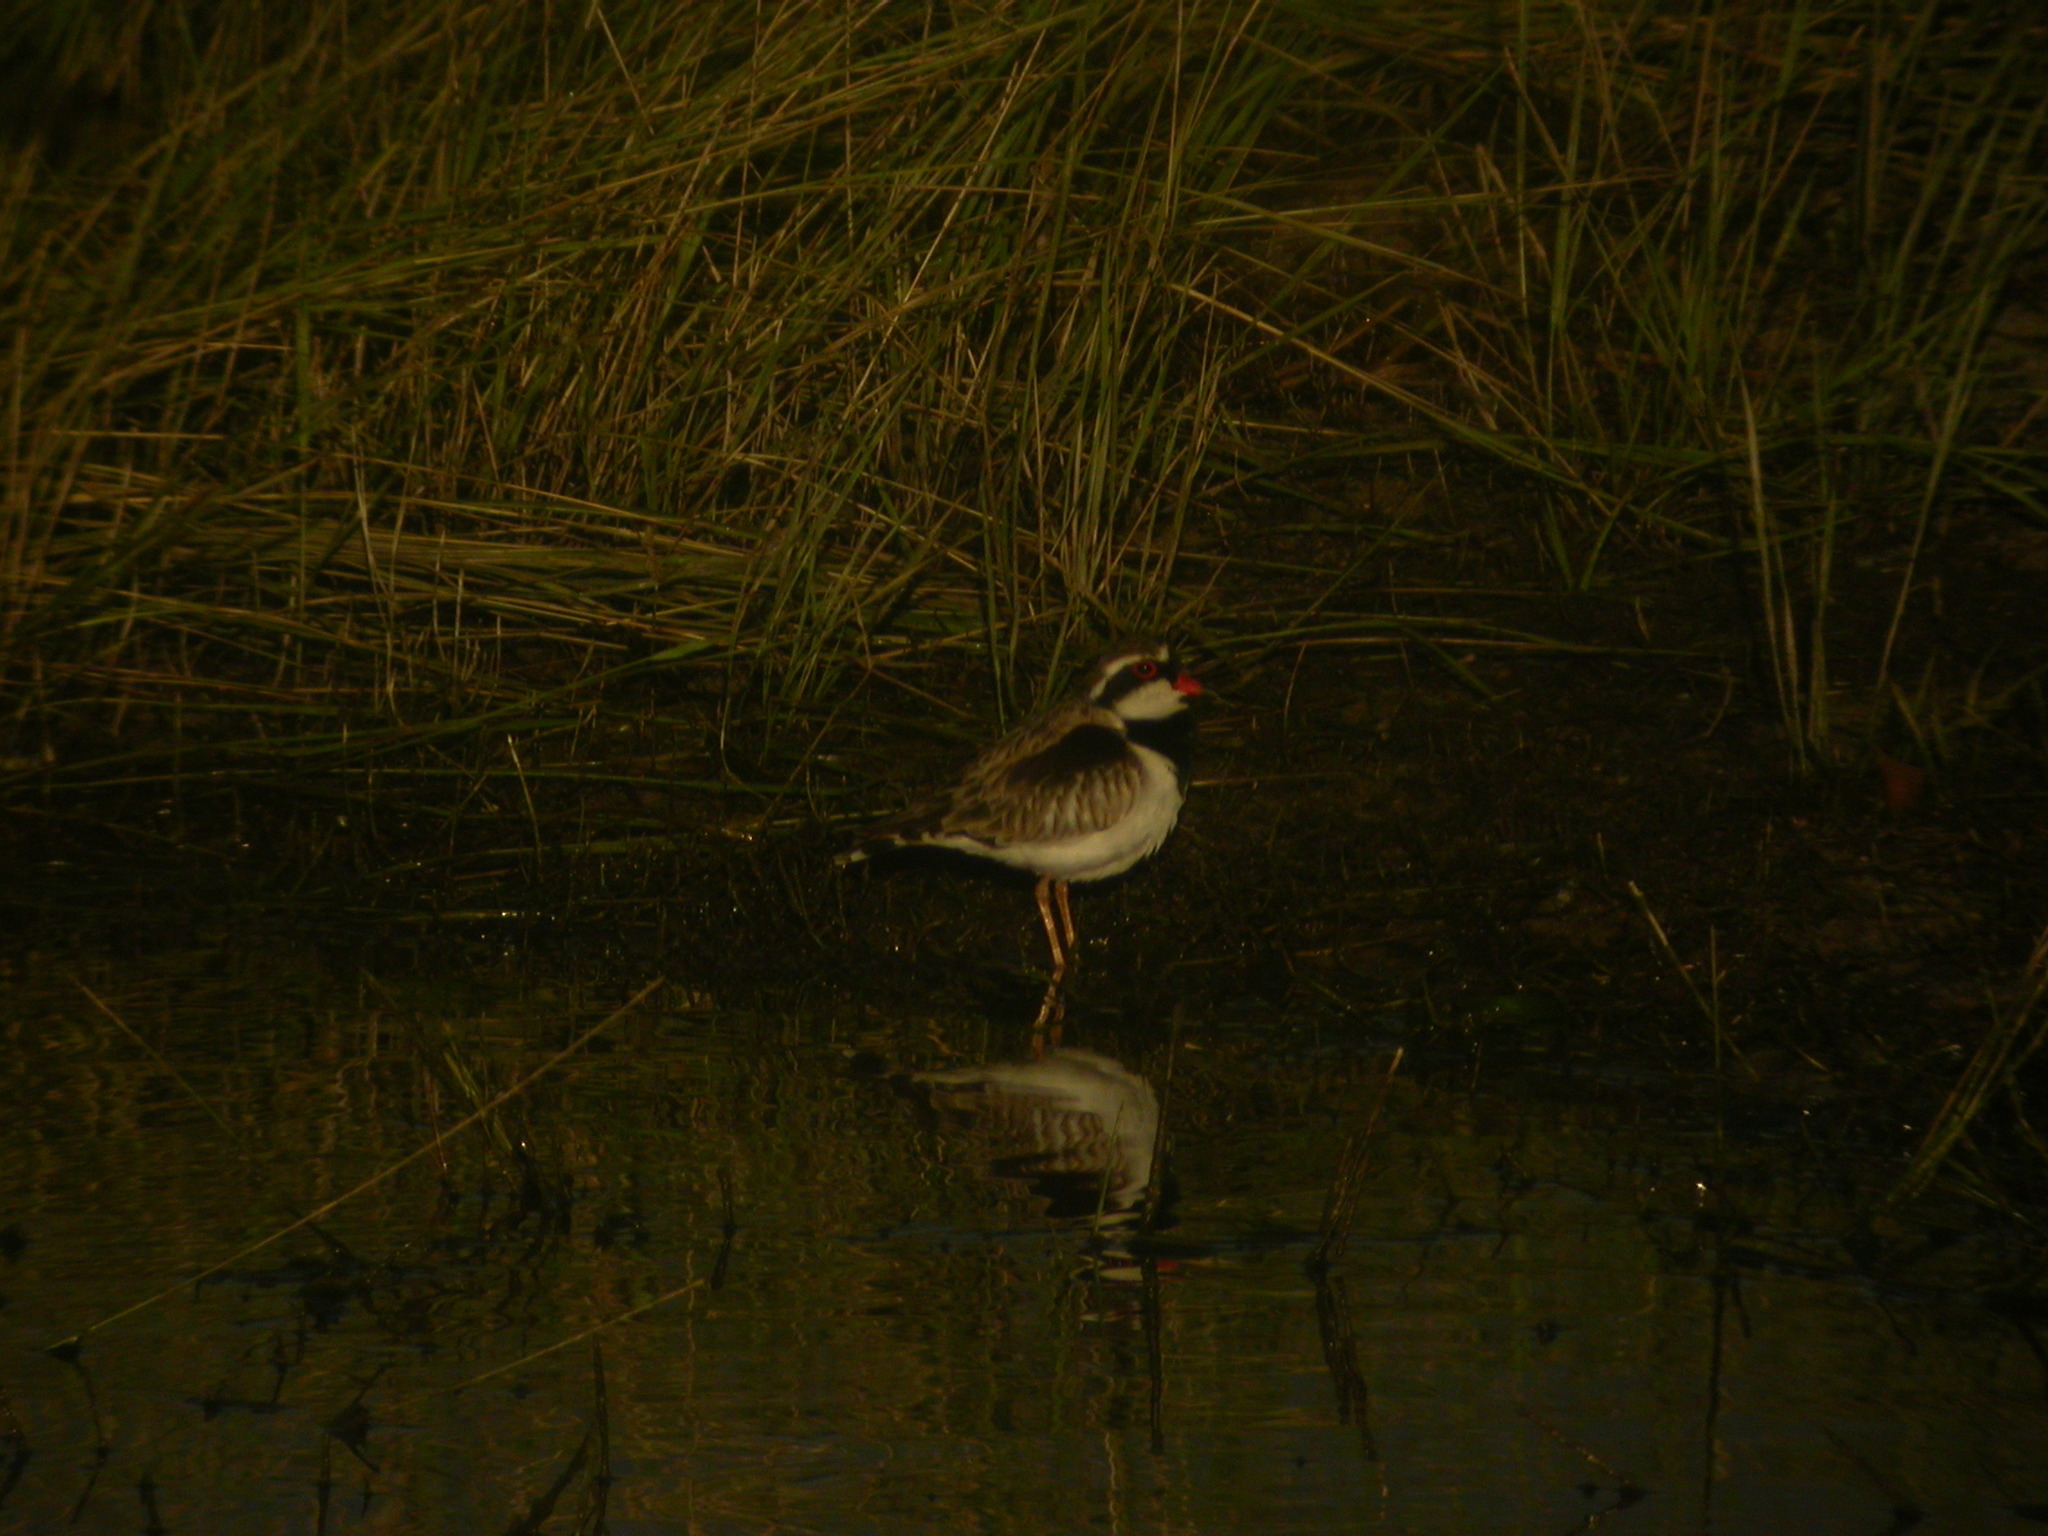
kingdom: Animalia
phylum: Chordata
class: Aves
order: Charadriiformes
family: Charadriidae
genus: Elseyornis
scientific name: Elseyornis melanops
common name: Black-fronted dotterel
